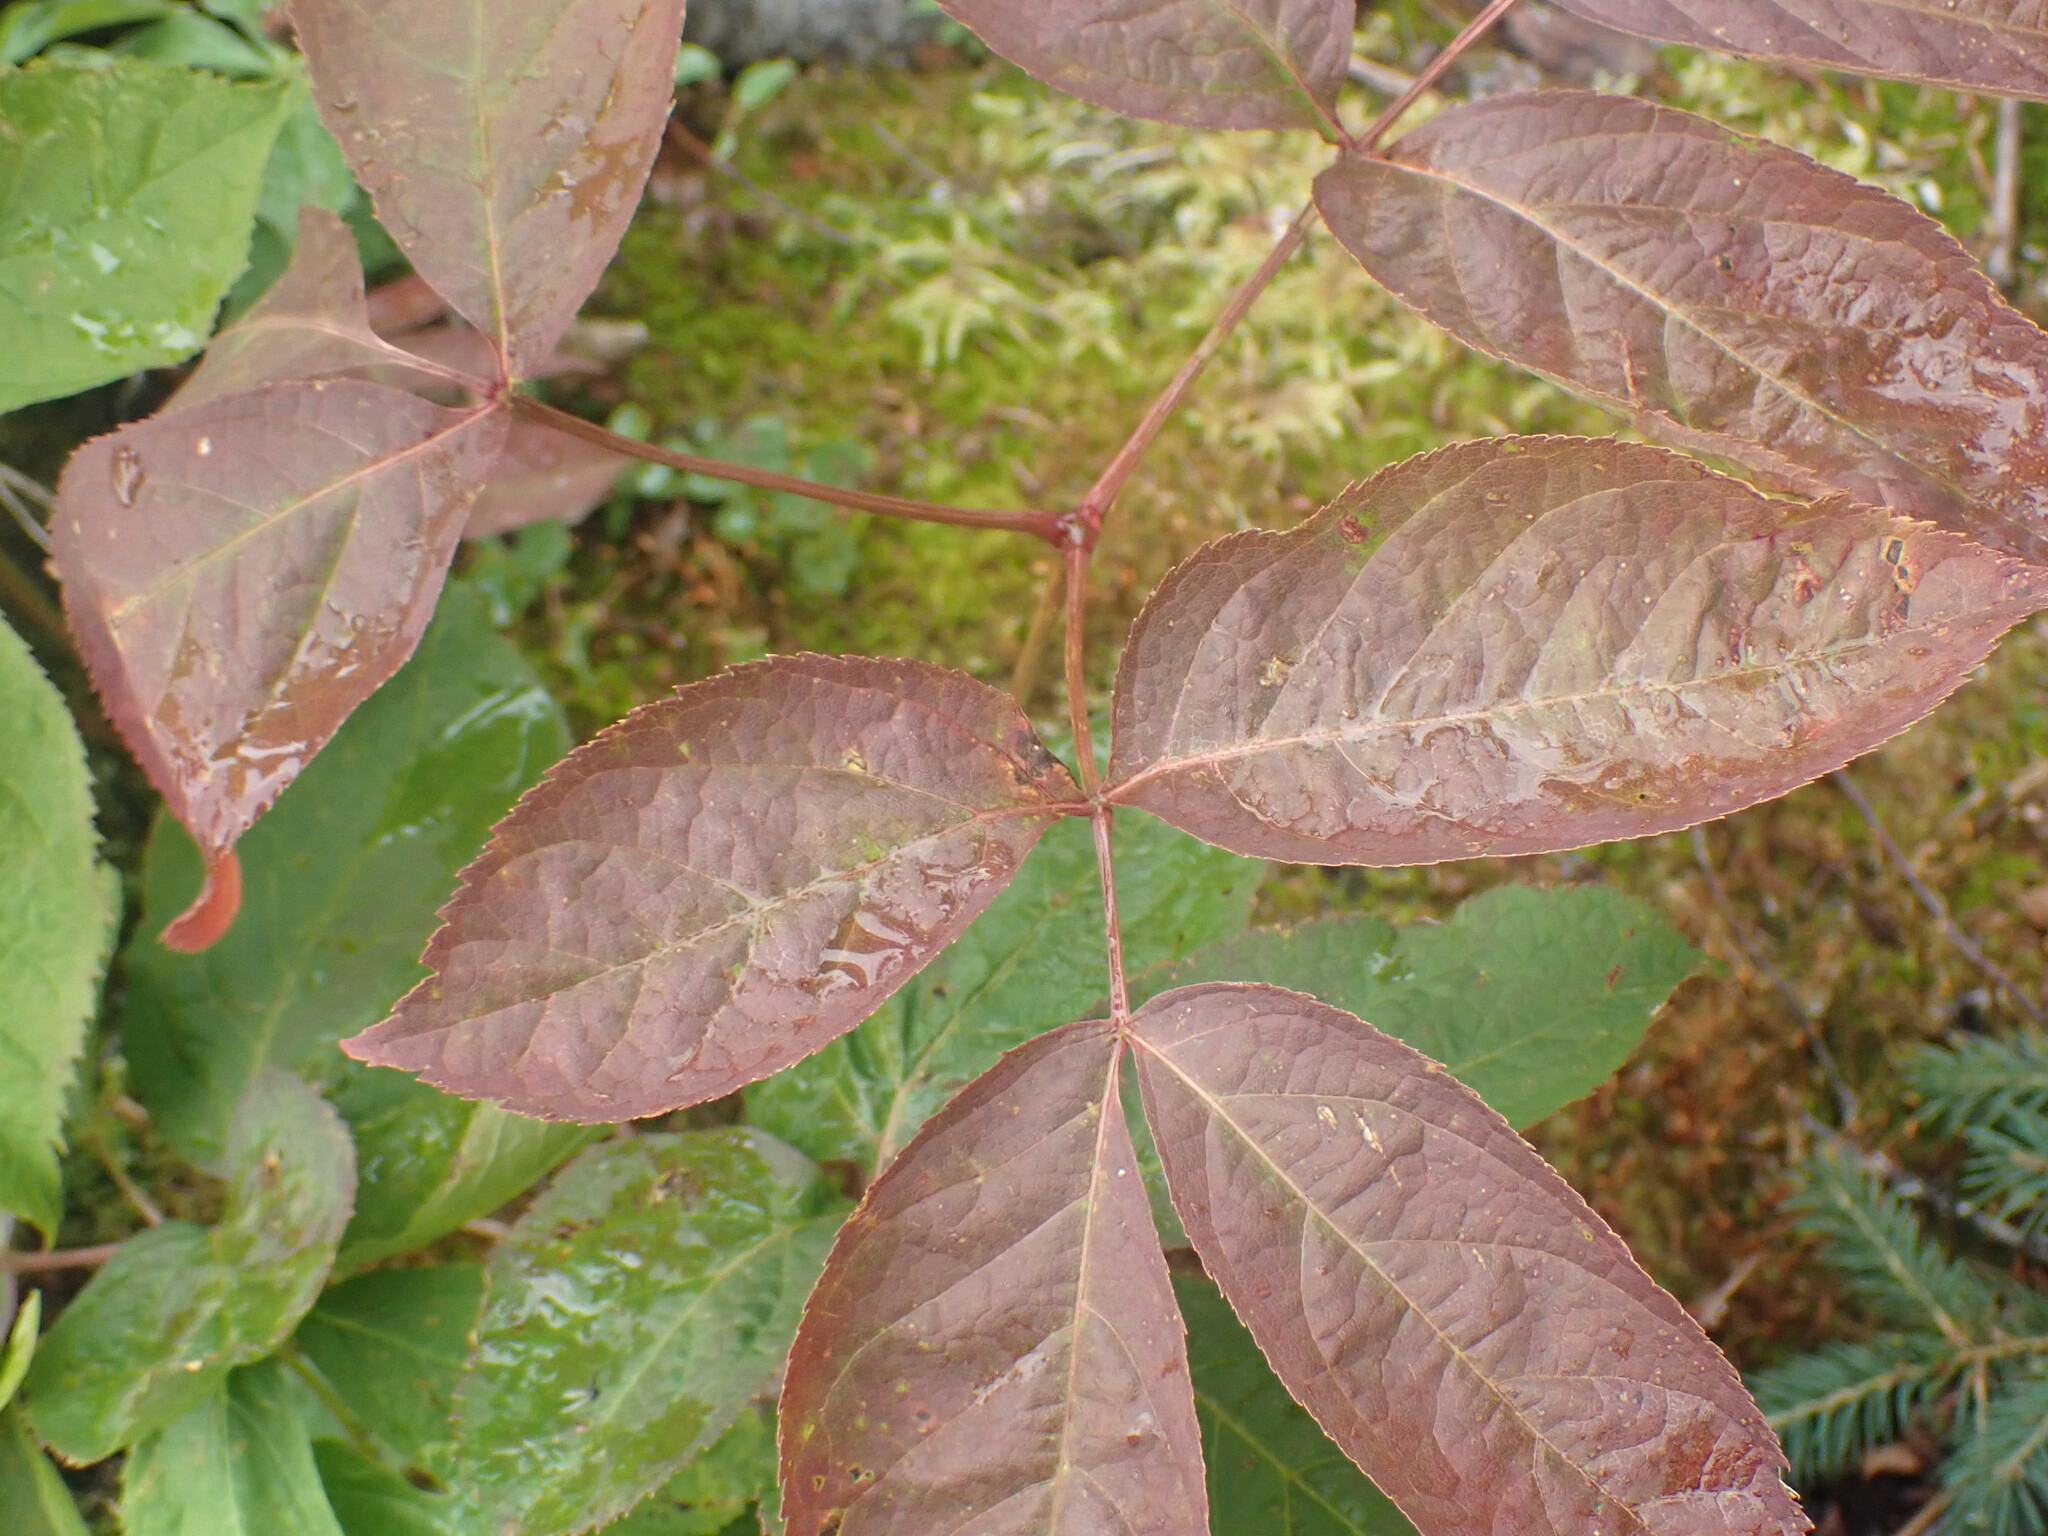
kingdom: Plantae
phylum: Tracheophyta
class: Magnoliopsida
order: Apiales
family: Araliaceae
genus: Aralia
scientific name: Aralia nudicaulis
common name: Wild sarsaparilla
